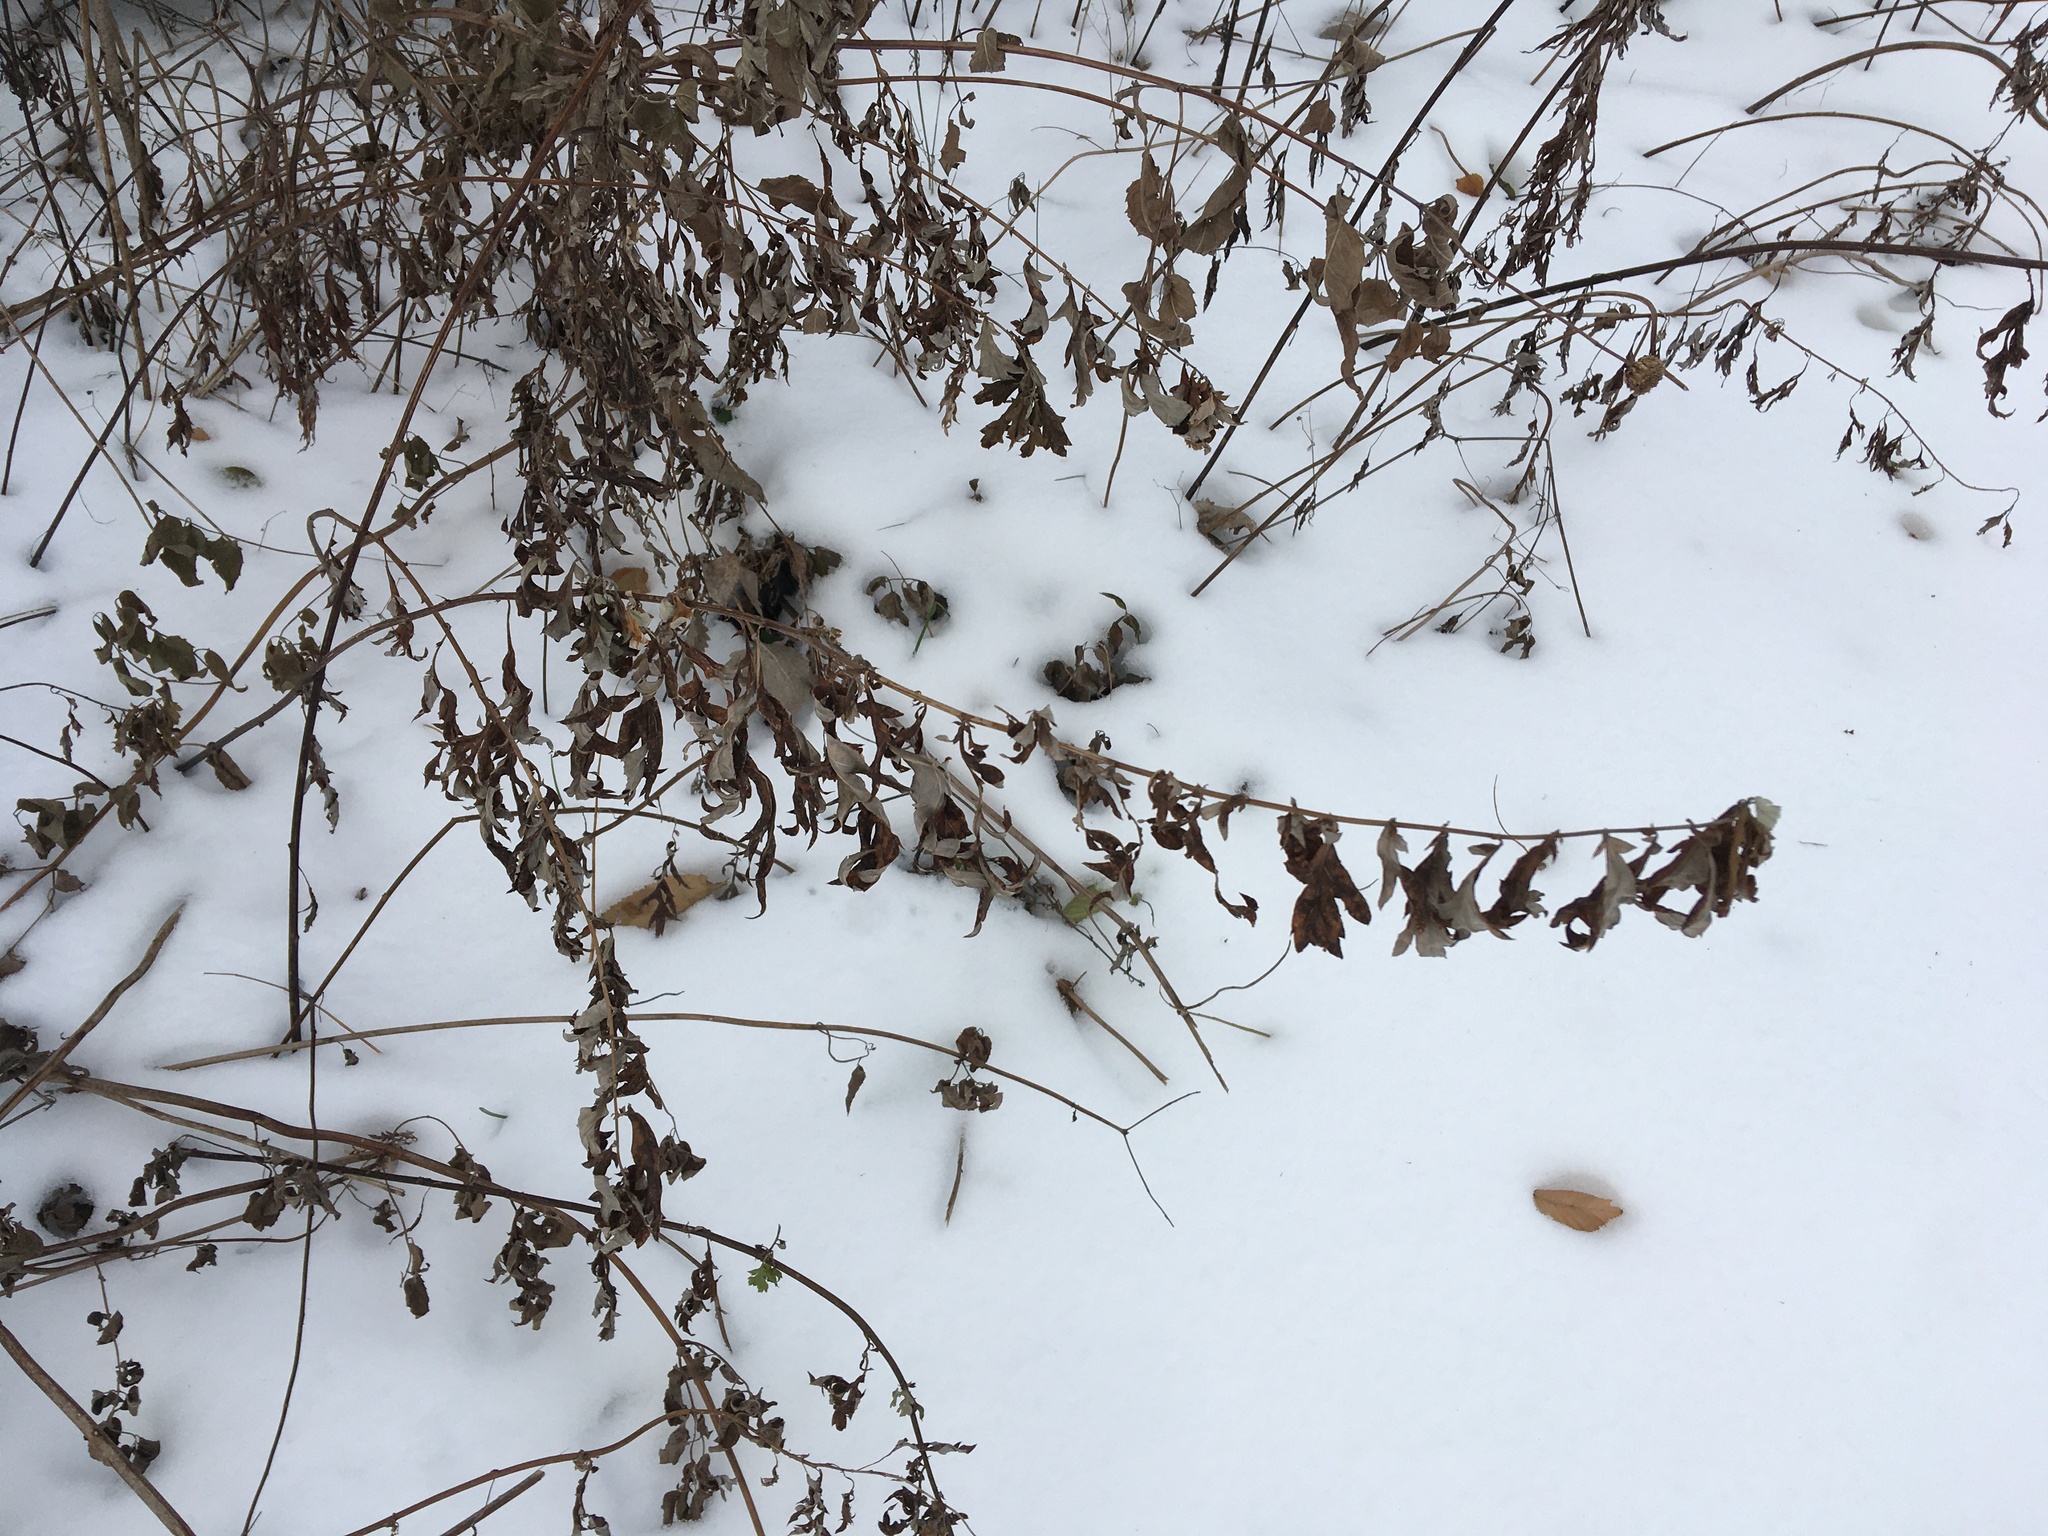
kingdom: Plantae
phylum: Tracheophyta
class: Magnoliopsida
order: Asterales
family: Asteraceae
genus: Artemisia
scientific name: Artemisia vulgaris
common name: Mugwort
